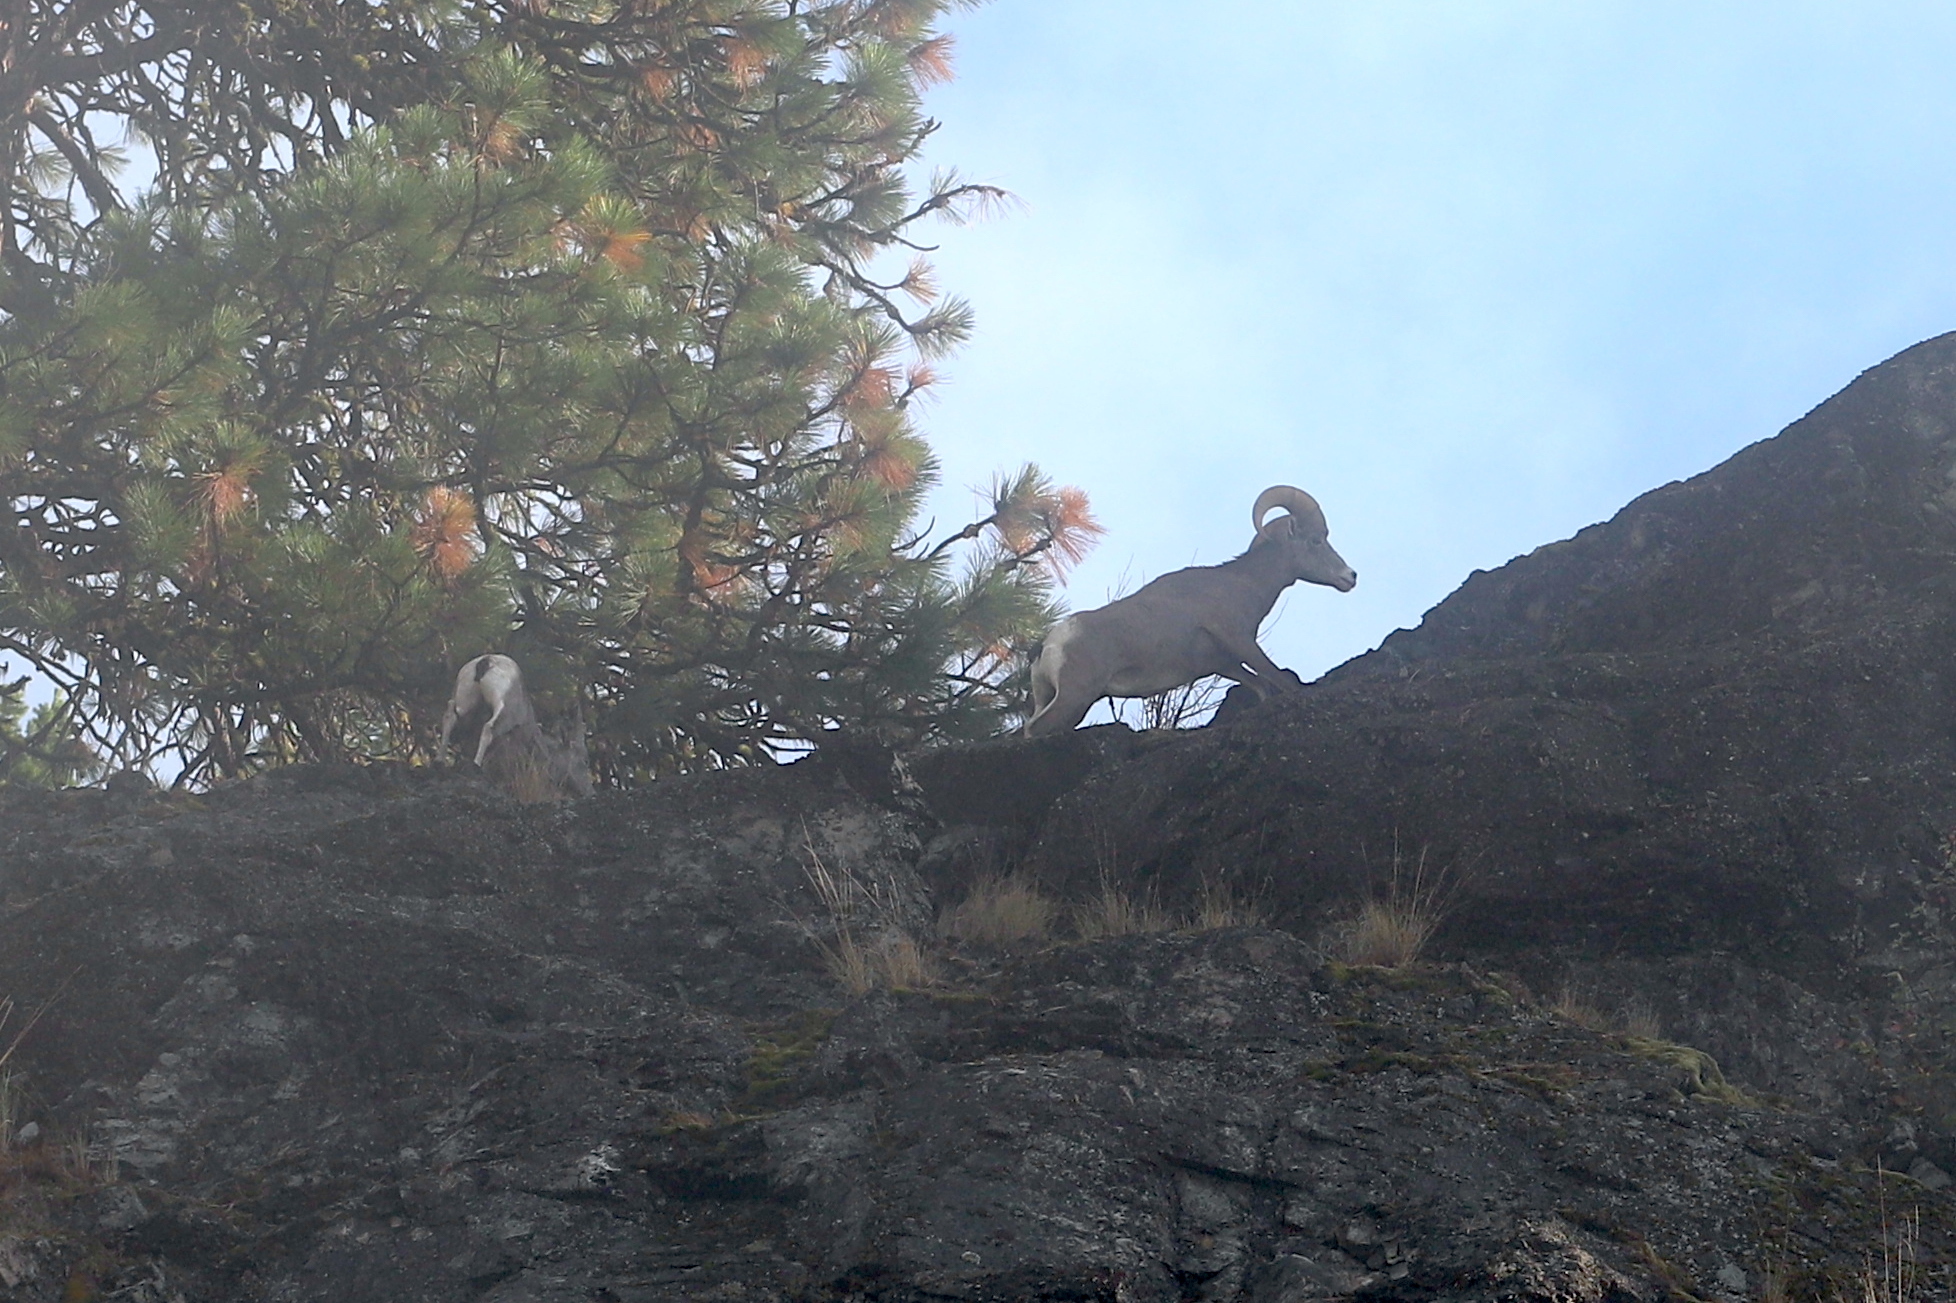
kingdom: Animalia
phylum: Chordata
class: Mammalia
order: Artiodactyla
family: Bovidae
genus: Ovis
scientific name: Ovis canadensis
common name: Bighorn sheep
